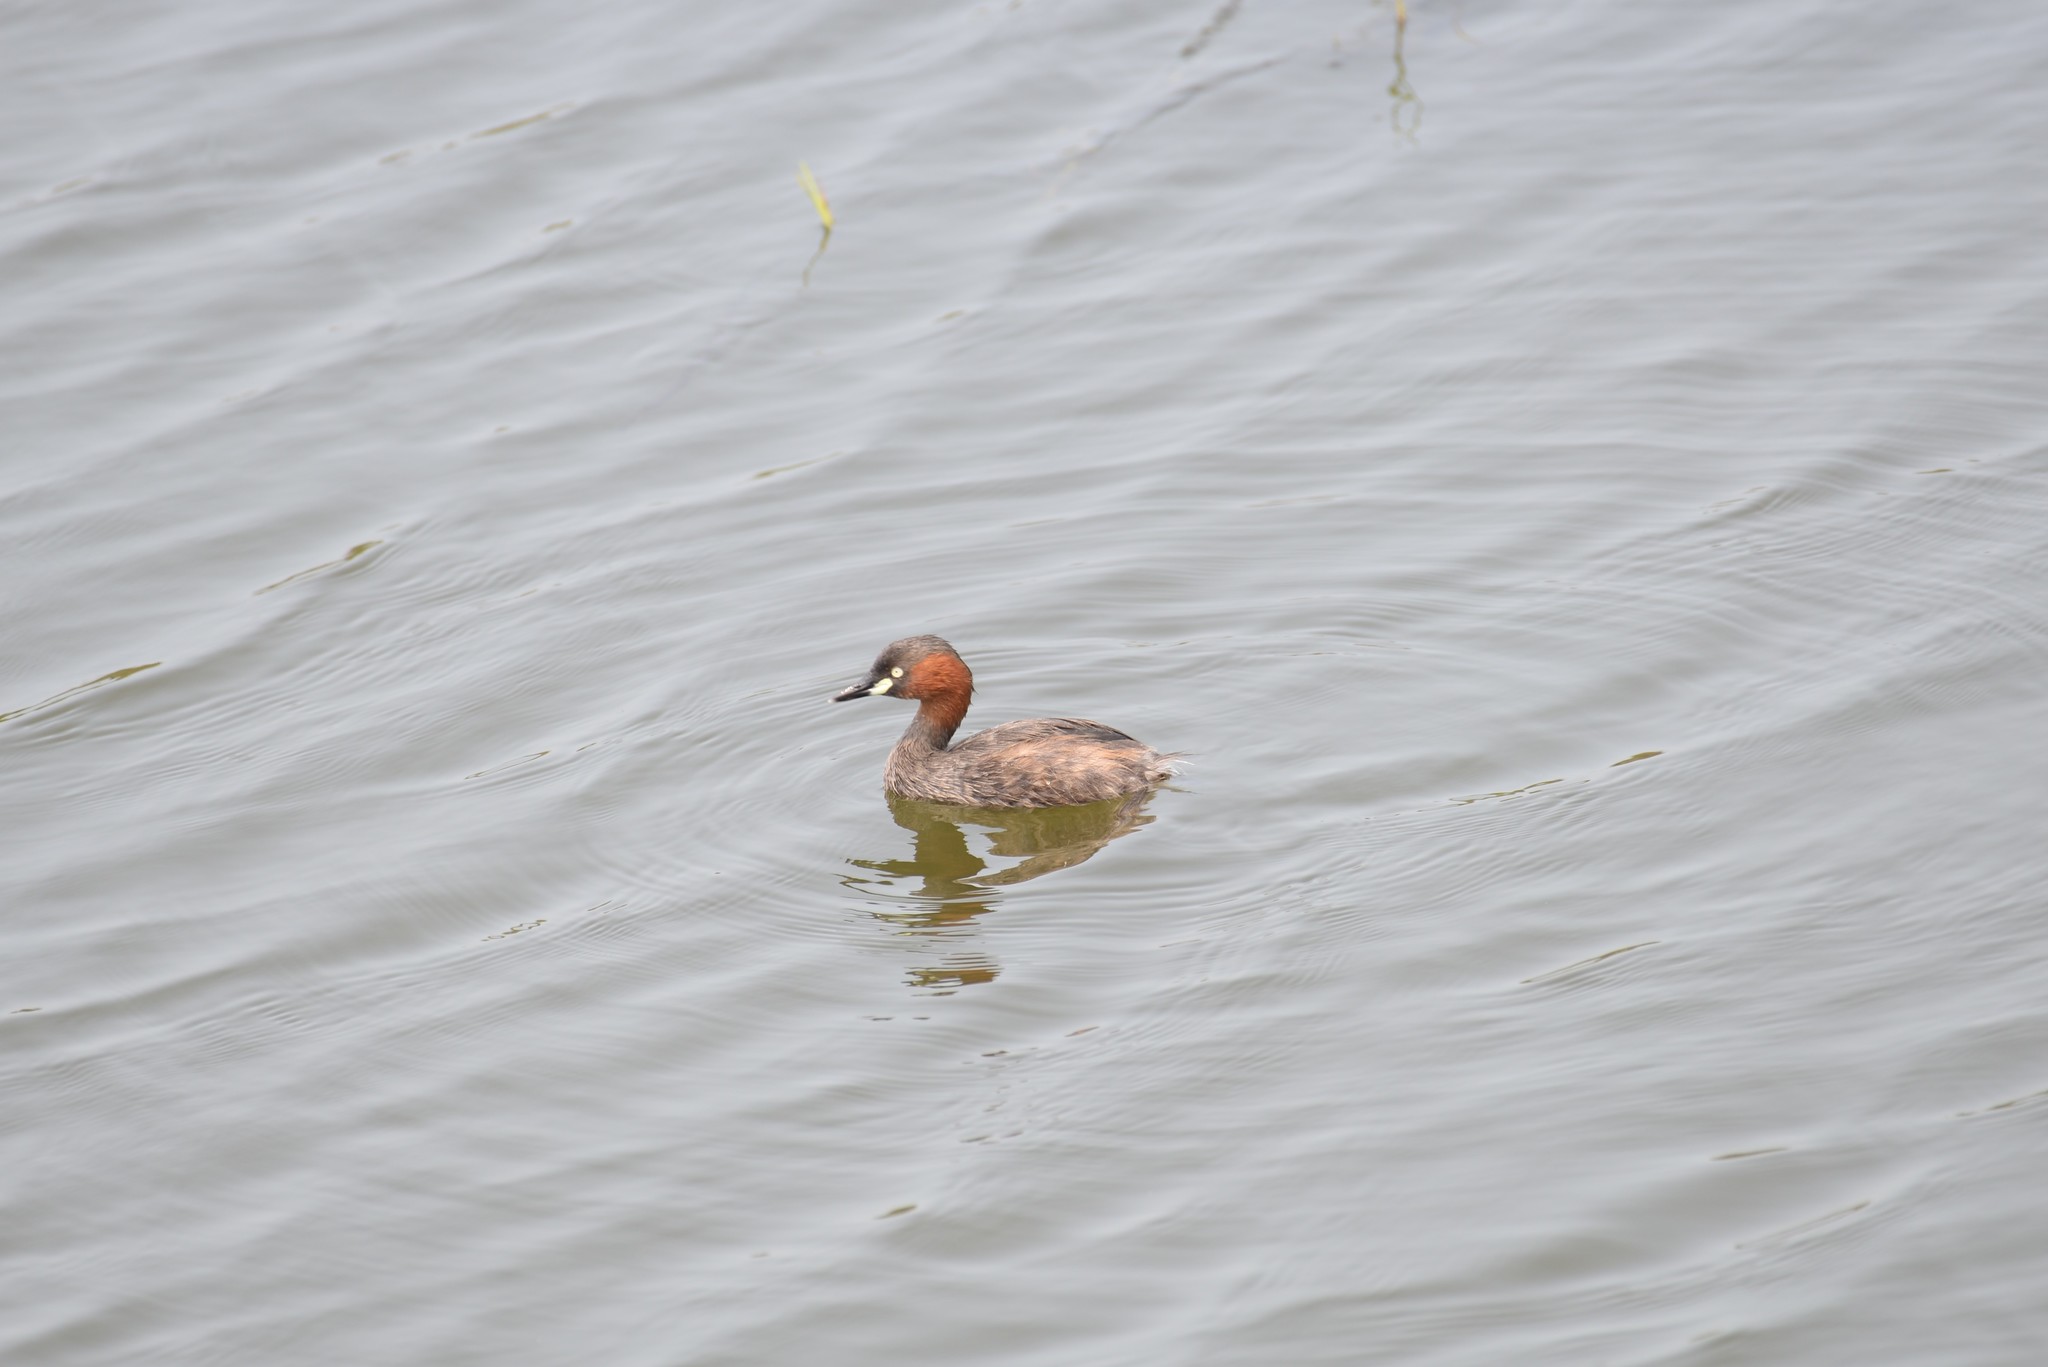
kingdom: Animalia
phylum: Chordata
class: Aves
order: Podicipediformes
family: Podicipedidae
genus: Tachybaptus
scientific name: Tachybaptus ruficollis
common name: Little grebe
